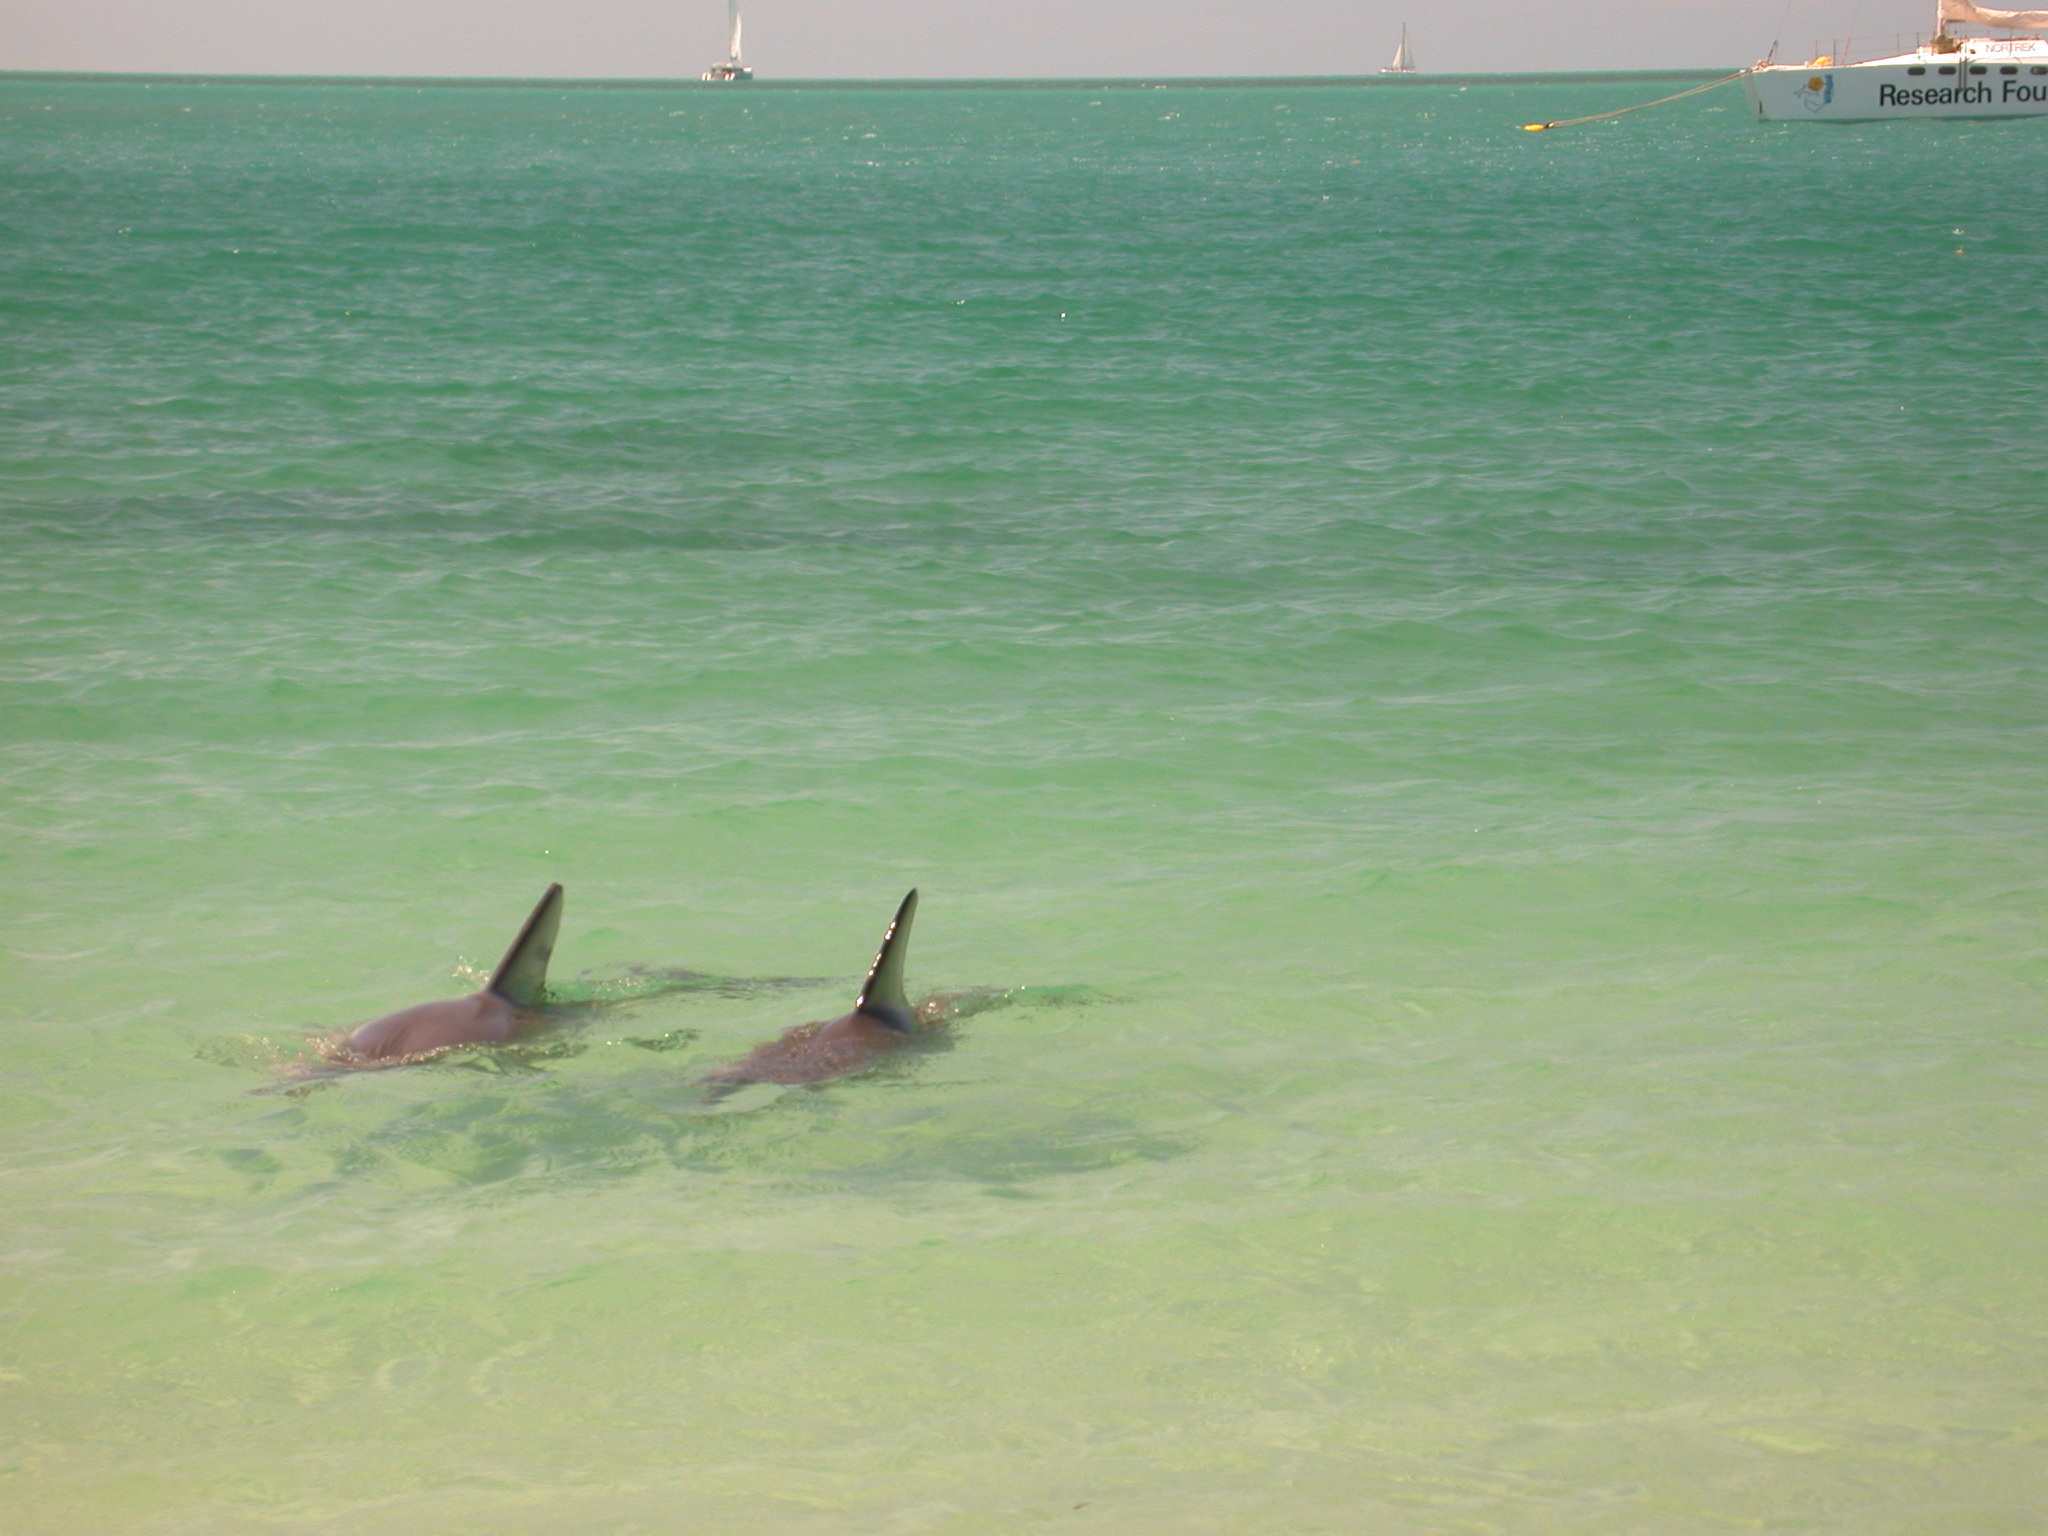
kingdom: Animalia
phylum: Chordata
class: Mammalia
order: Cetacea
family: Delphinidae
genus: Tursiops
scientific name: Tursiops aduncus
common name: Indo-pacific bottlenose dolphin
